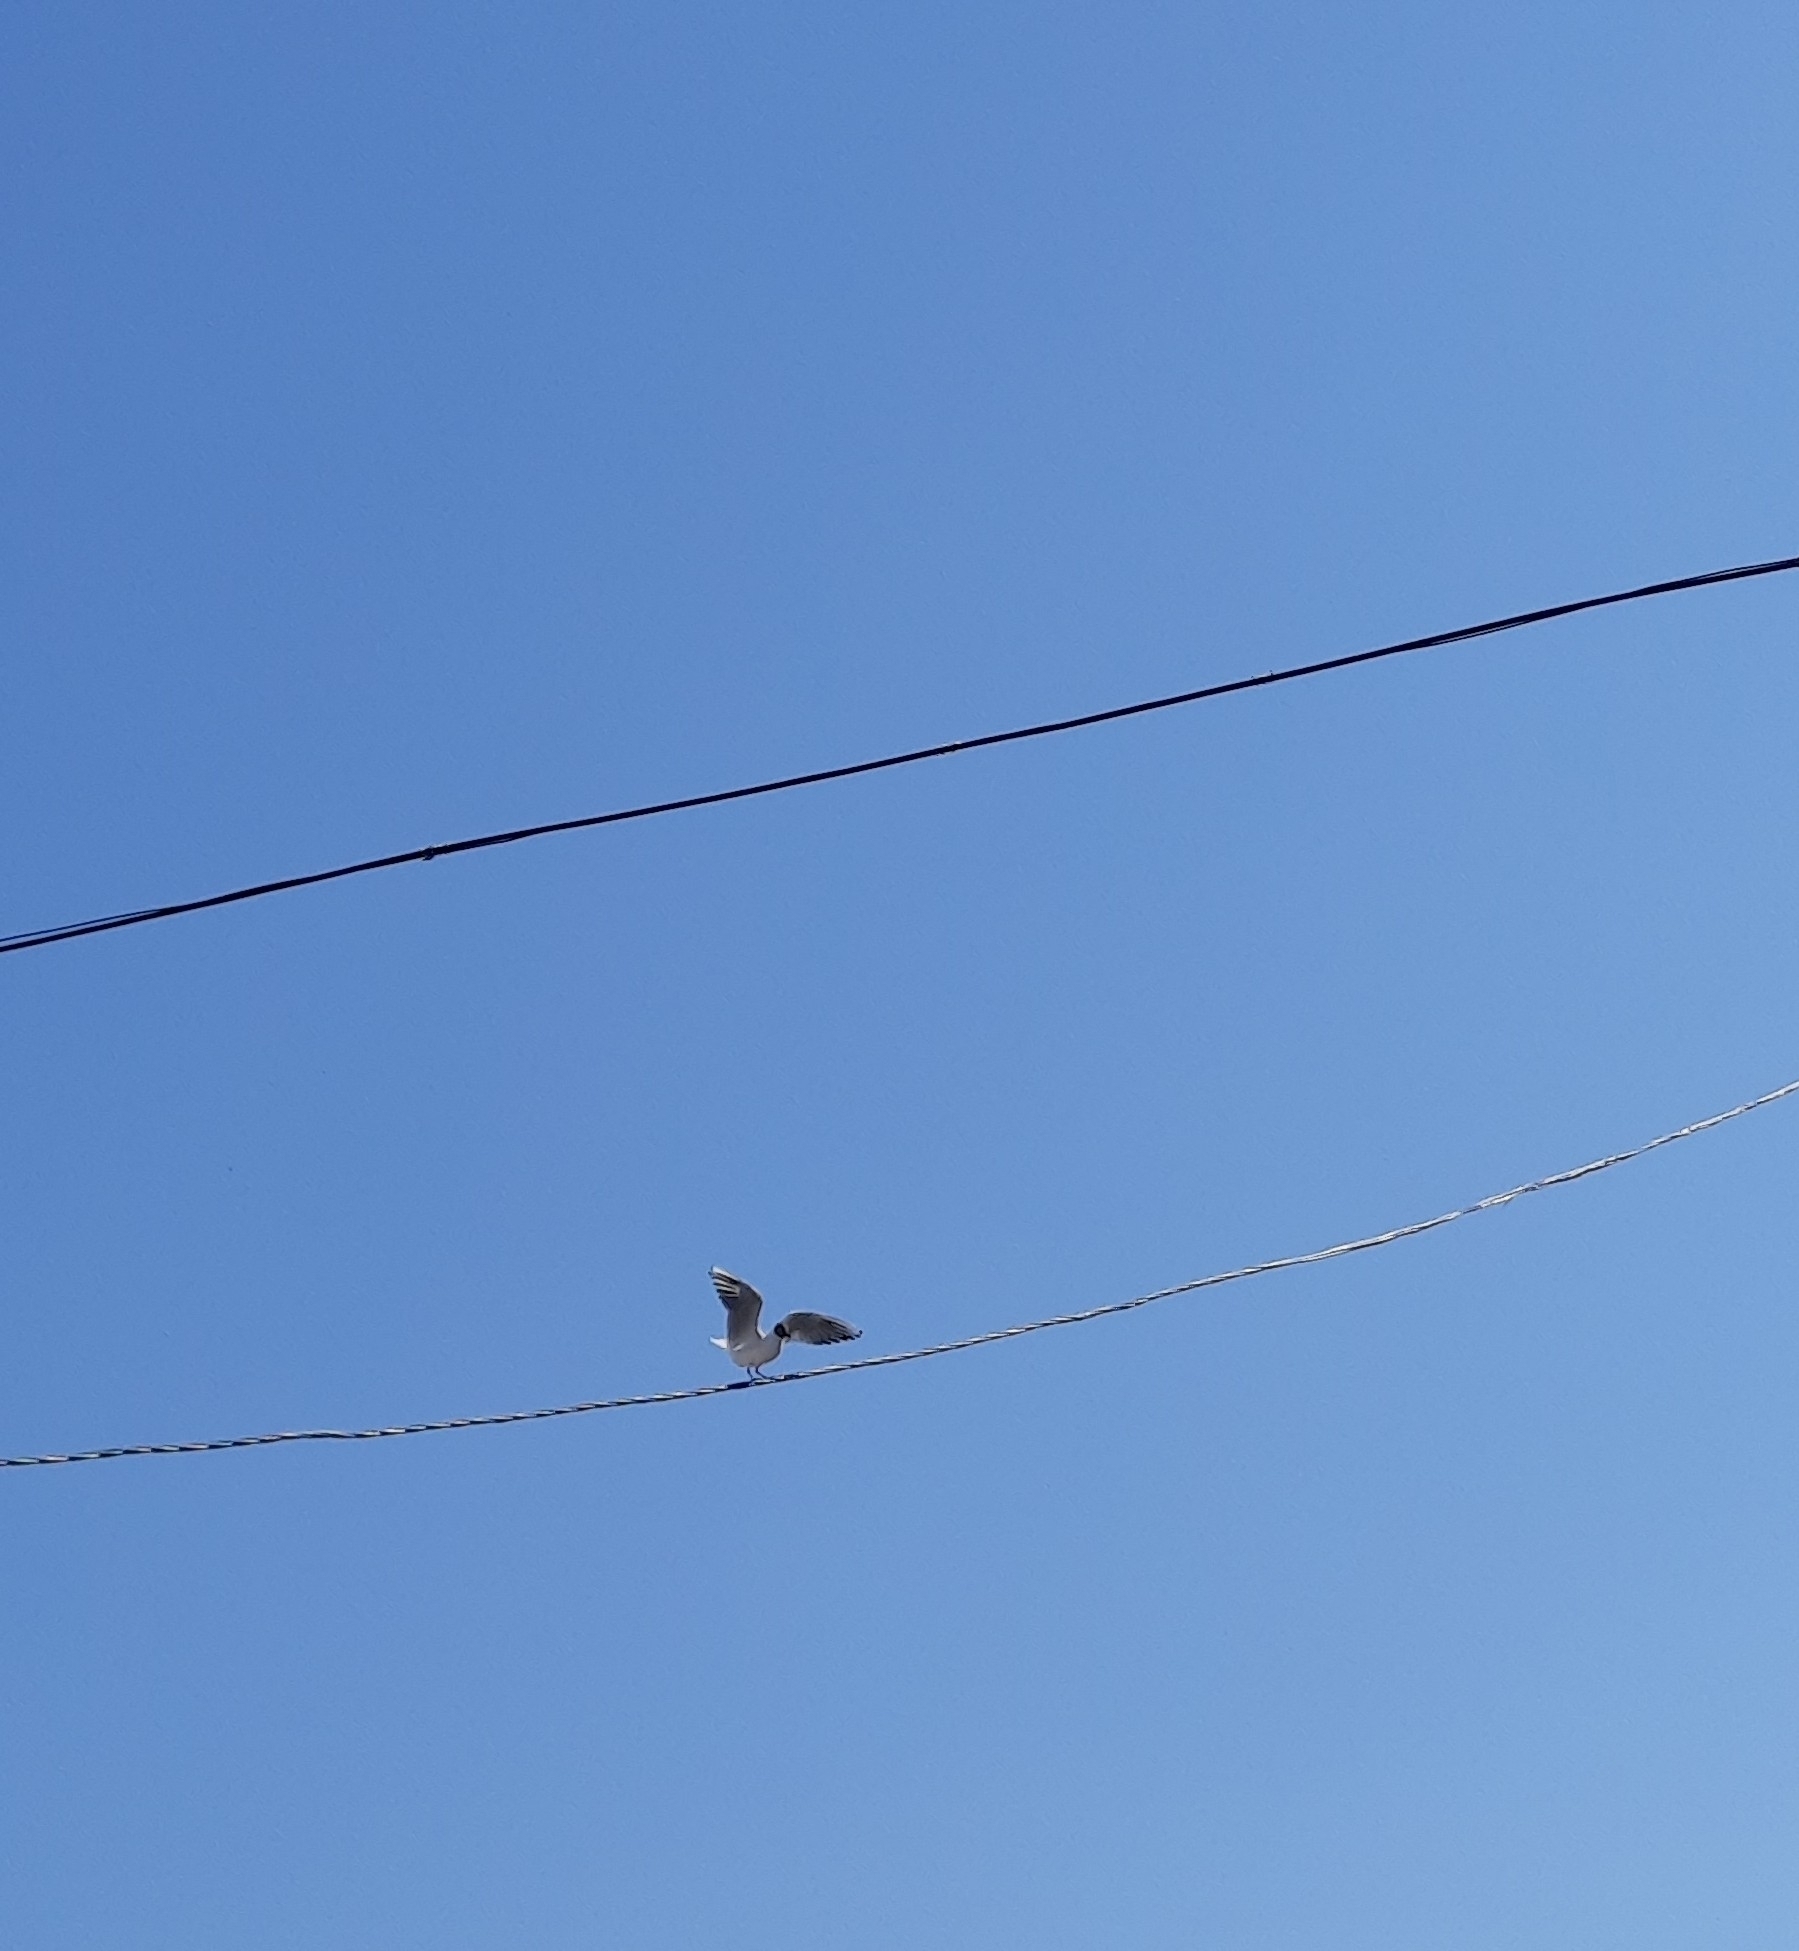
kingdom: Animalia
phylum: Chordata
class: Aves
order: Charadriiformes
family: Laridae
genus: Chroicocephalus
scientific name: Chroicocephalus ridibundus
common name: Black-headed gull
